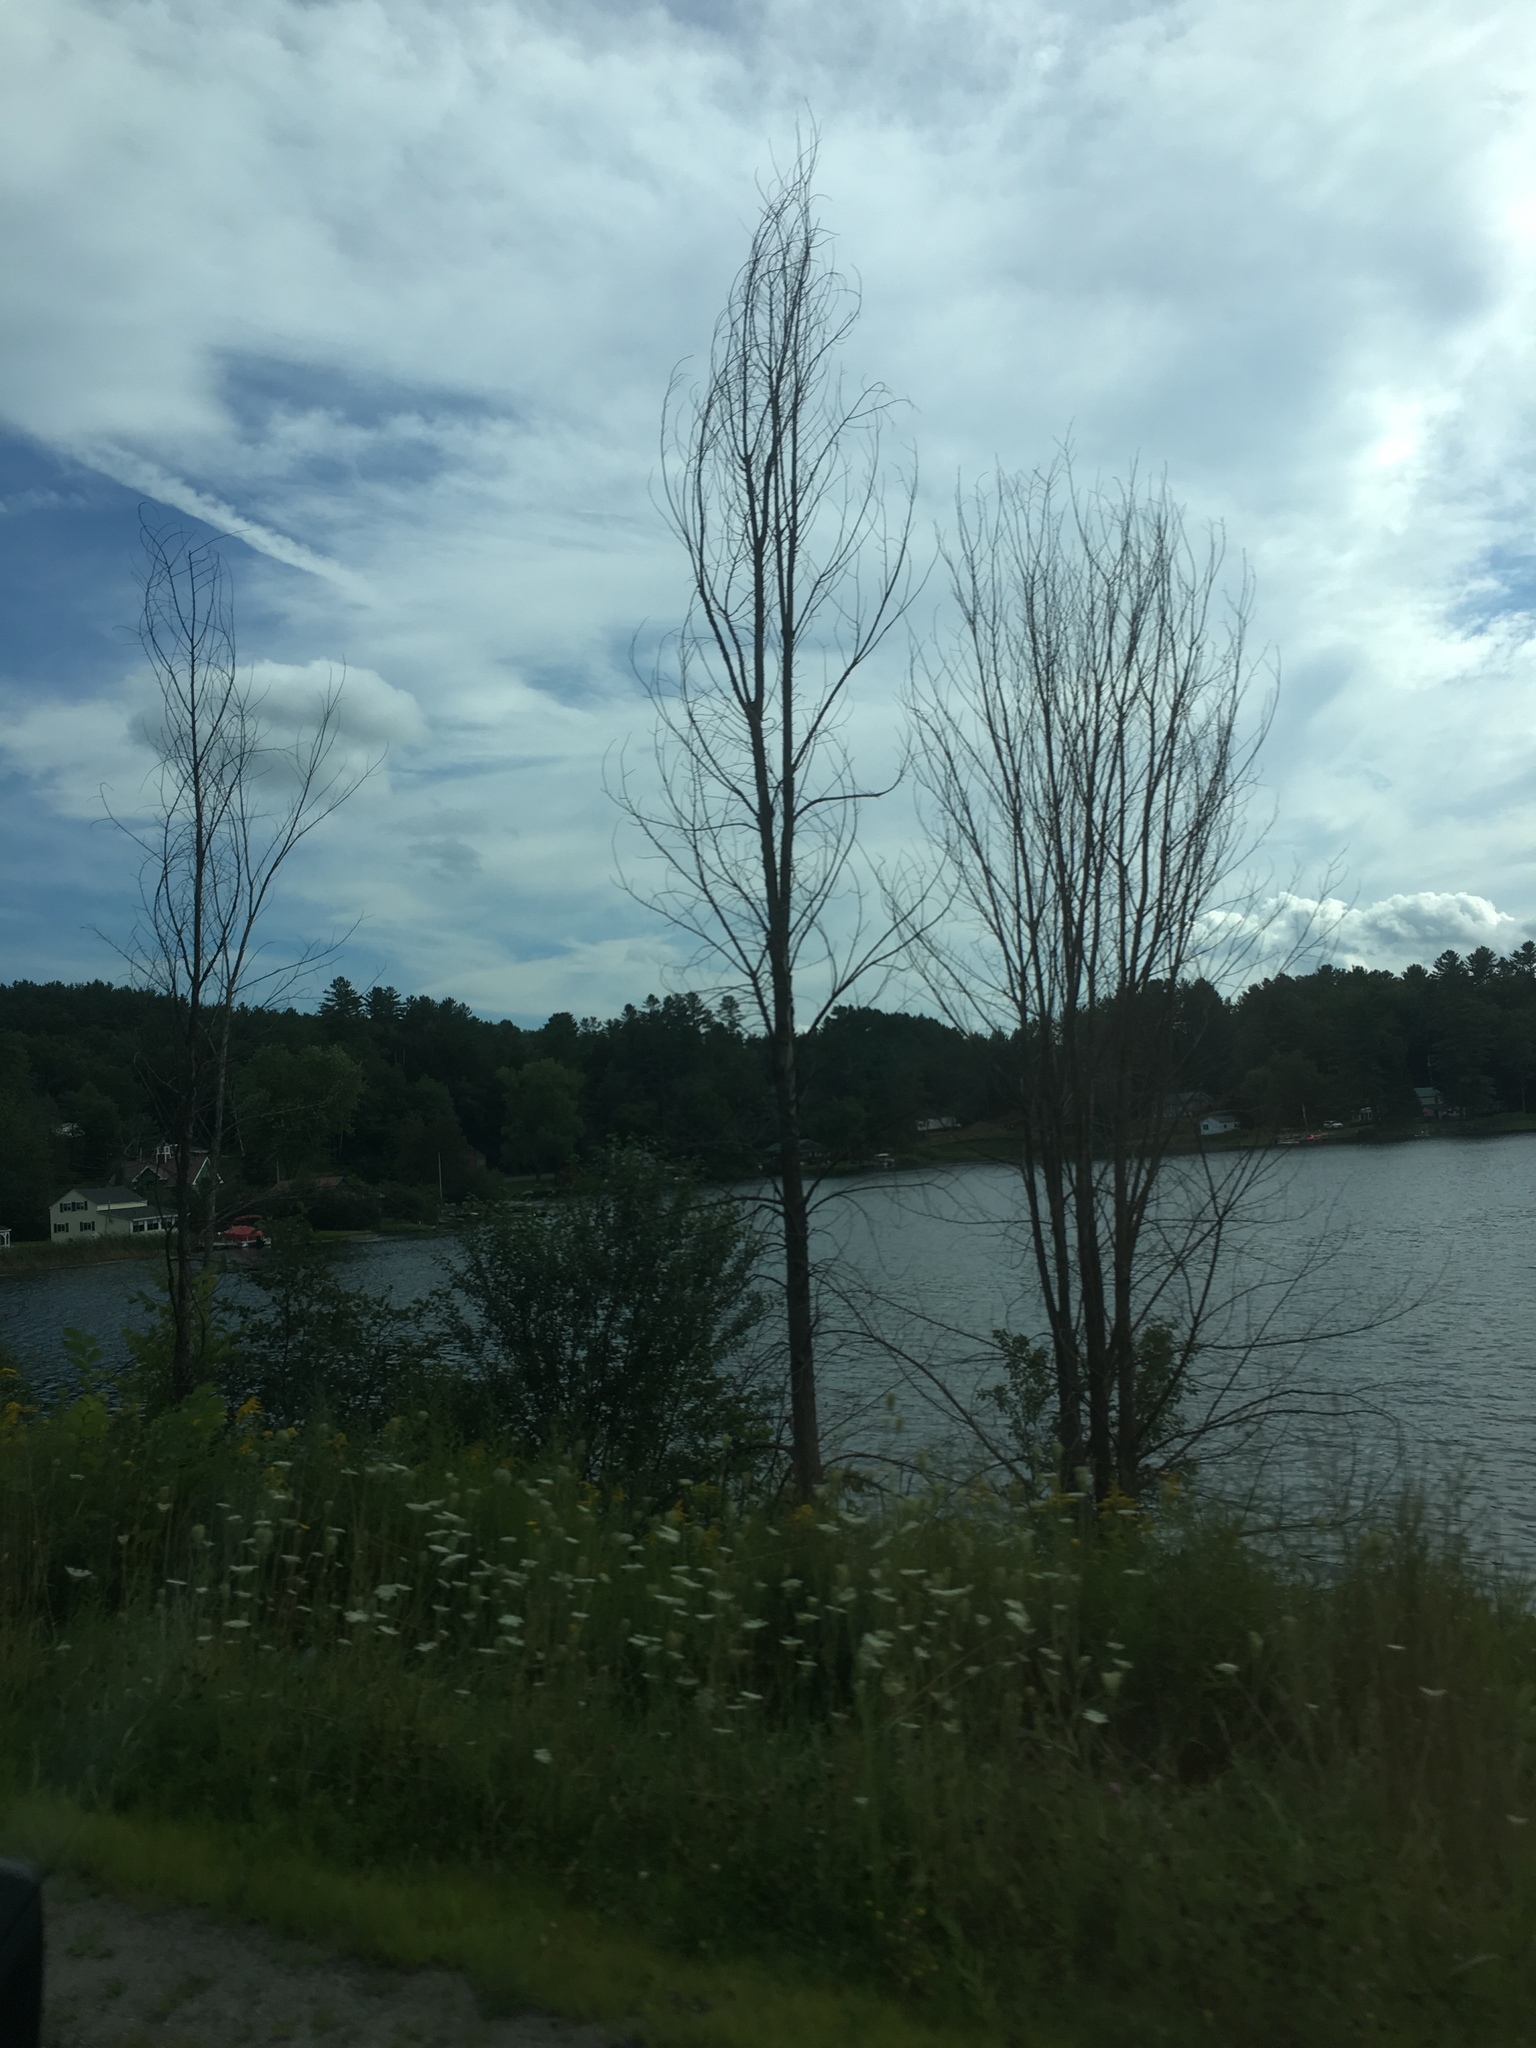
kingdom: Plantae
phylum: Tracheophyta
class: Magnoliopsida
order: Rosales
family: Ulmaceae
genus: Ulmus
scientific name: Ulmus americana
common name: American elm
